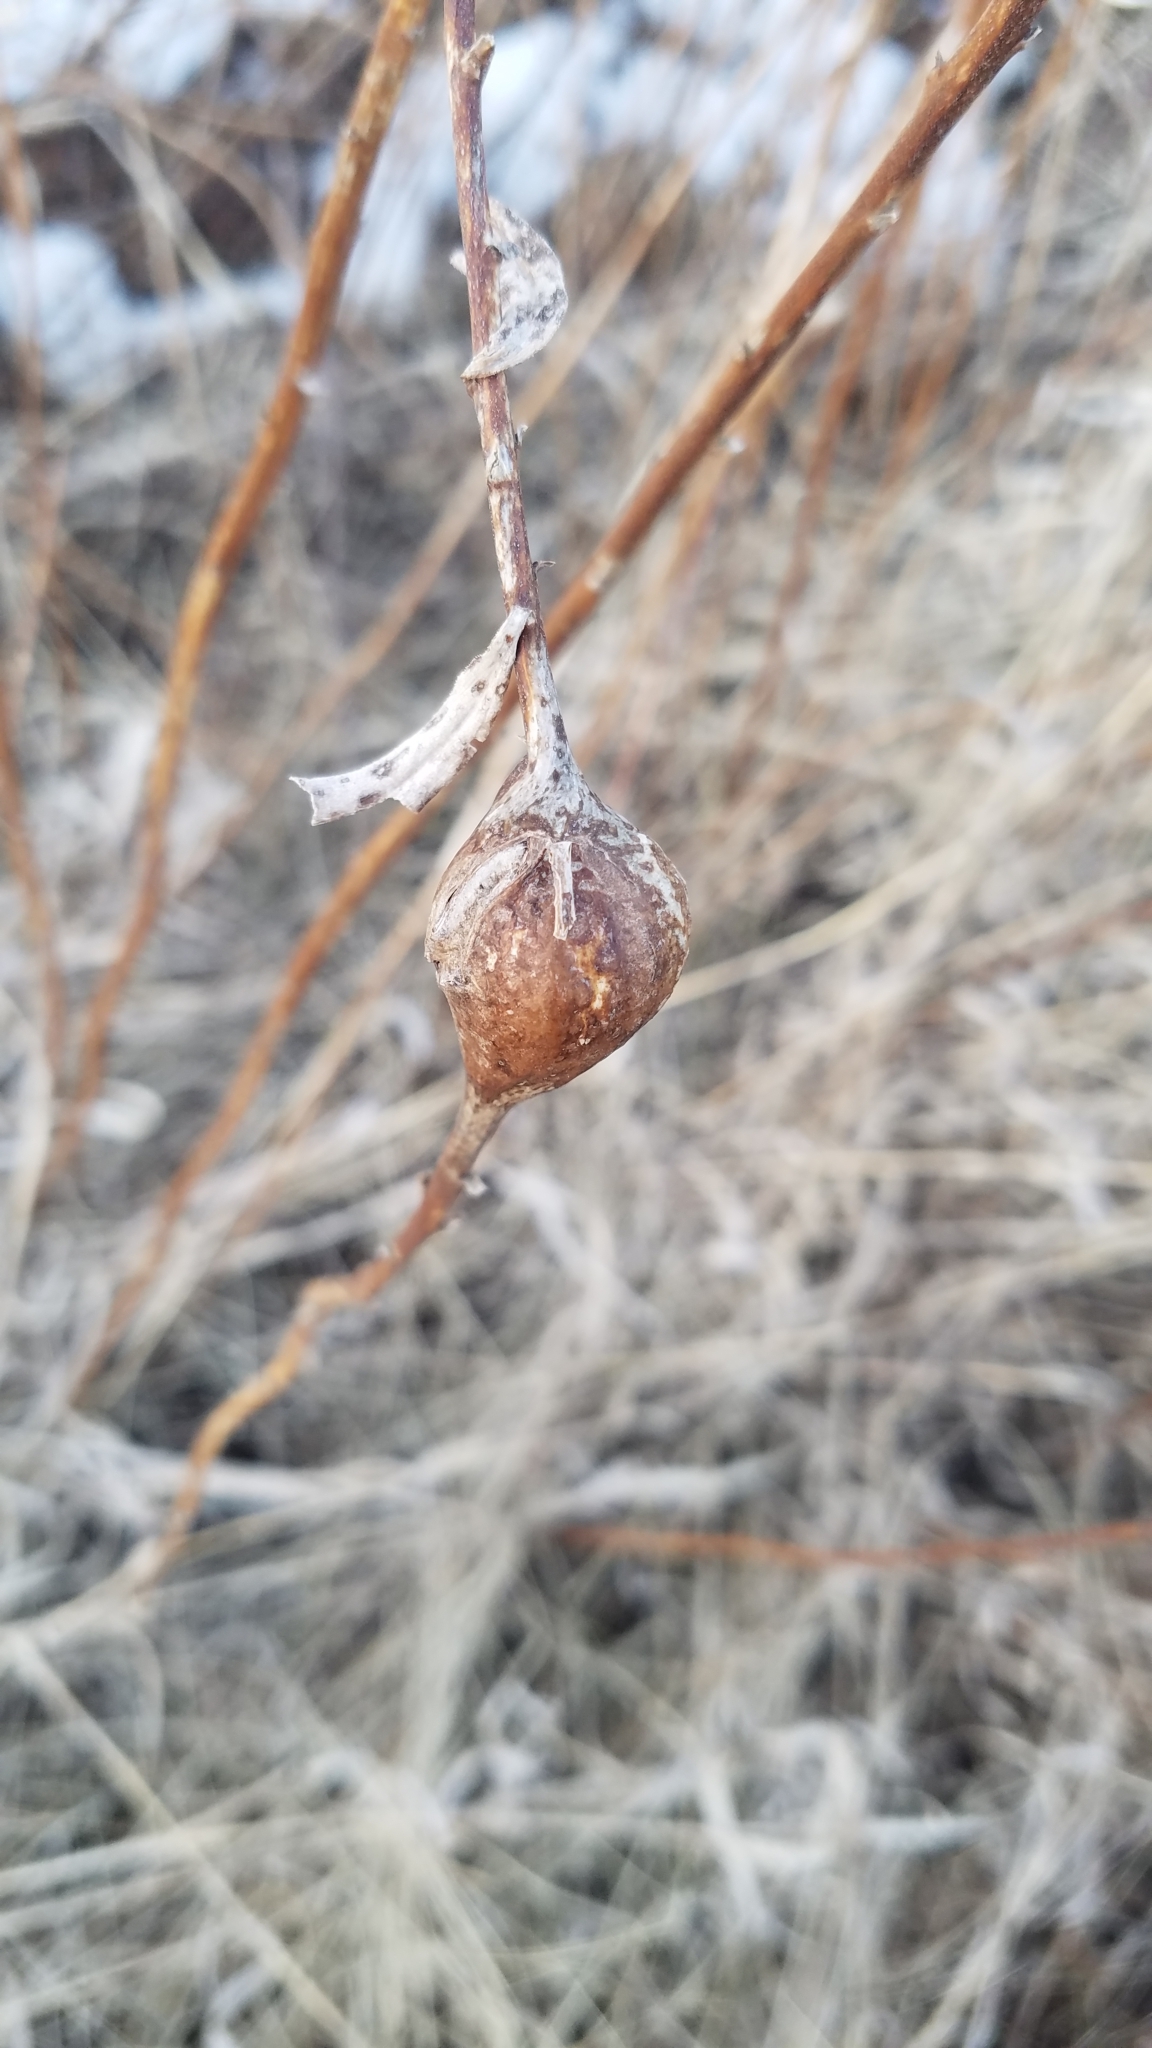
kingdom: Animalia
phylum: Arthropoda
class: Insecta
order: Diptera
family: Tephritidae
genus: Eurosta
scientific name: Eurosta solidaginis
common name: Goldenrod gall fly
